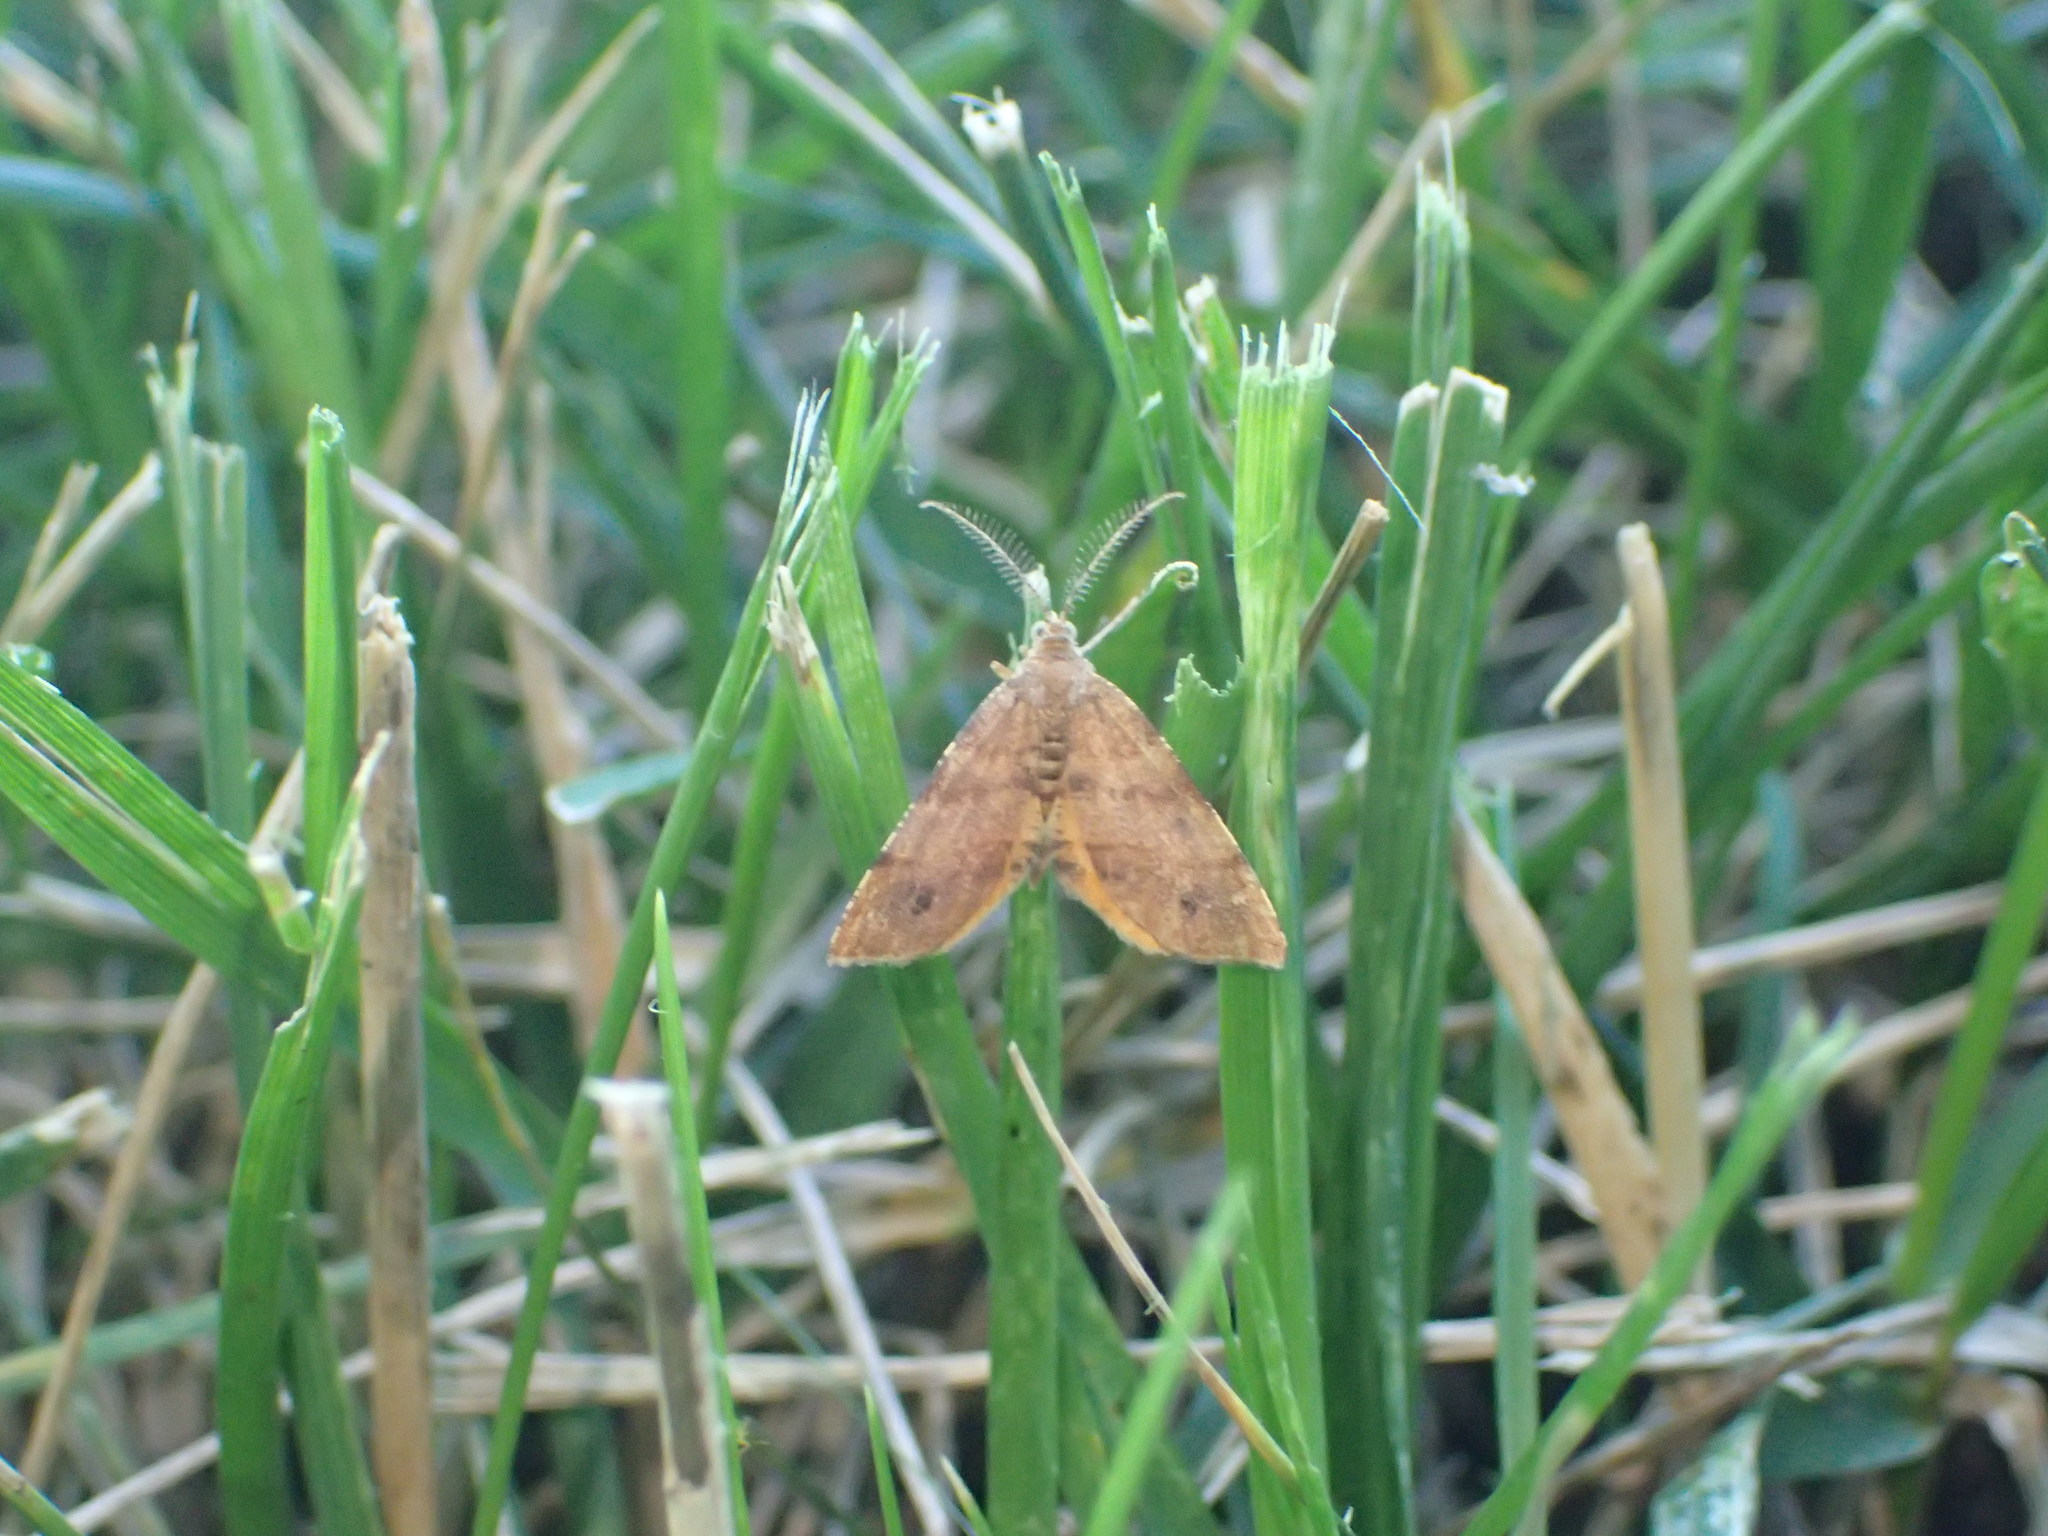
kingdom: Animalia
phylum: Arthropoda
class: Insecta
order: Lepidoptera
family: Geometridae
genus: Mellilla
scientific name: Mellilla xanthometata
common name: Orange wing moth
